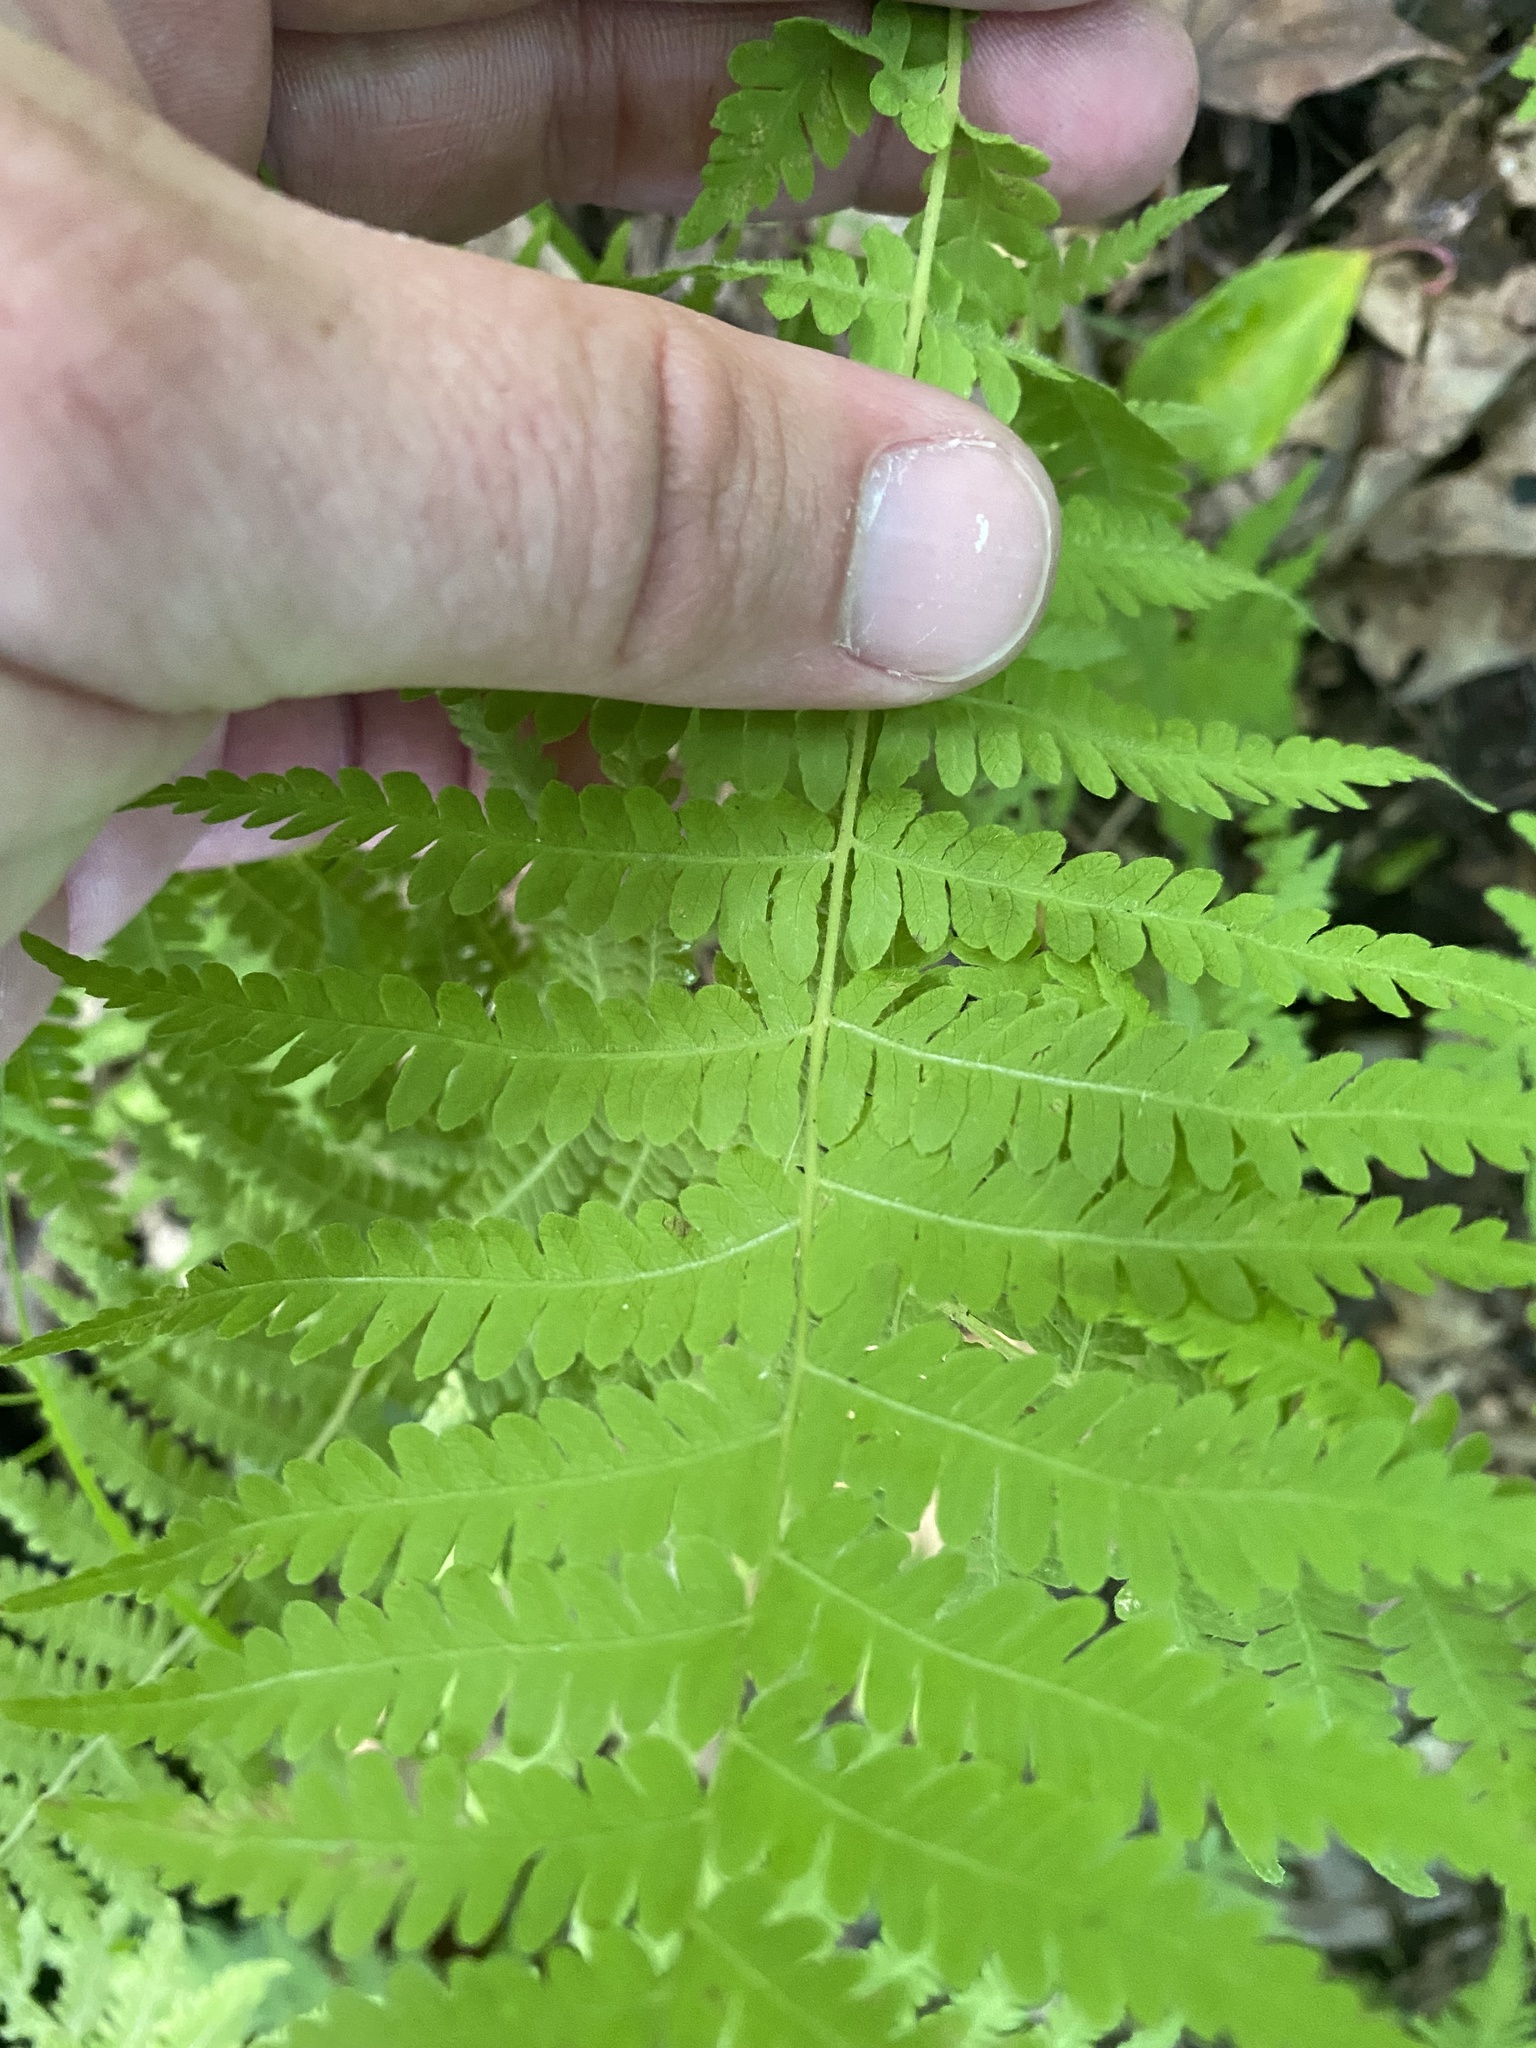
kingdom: Plantae
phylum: Tracheophyta
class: Polypodiopsida
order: Polypodiales
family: Thelypteridaceae
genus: Amauropelta
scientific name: Amauropelta noveboracensis
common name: New york fern
